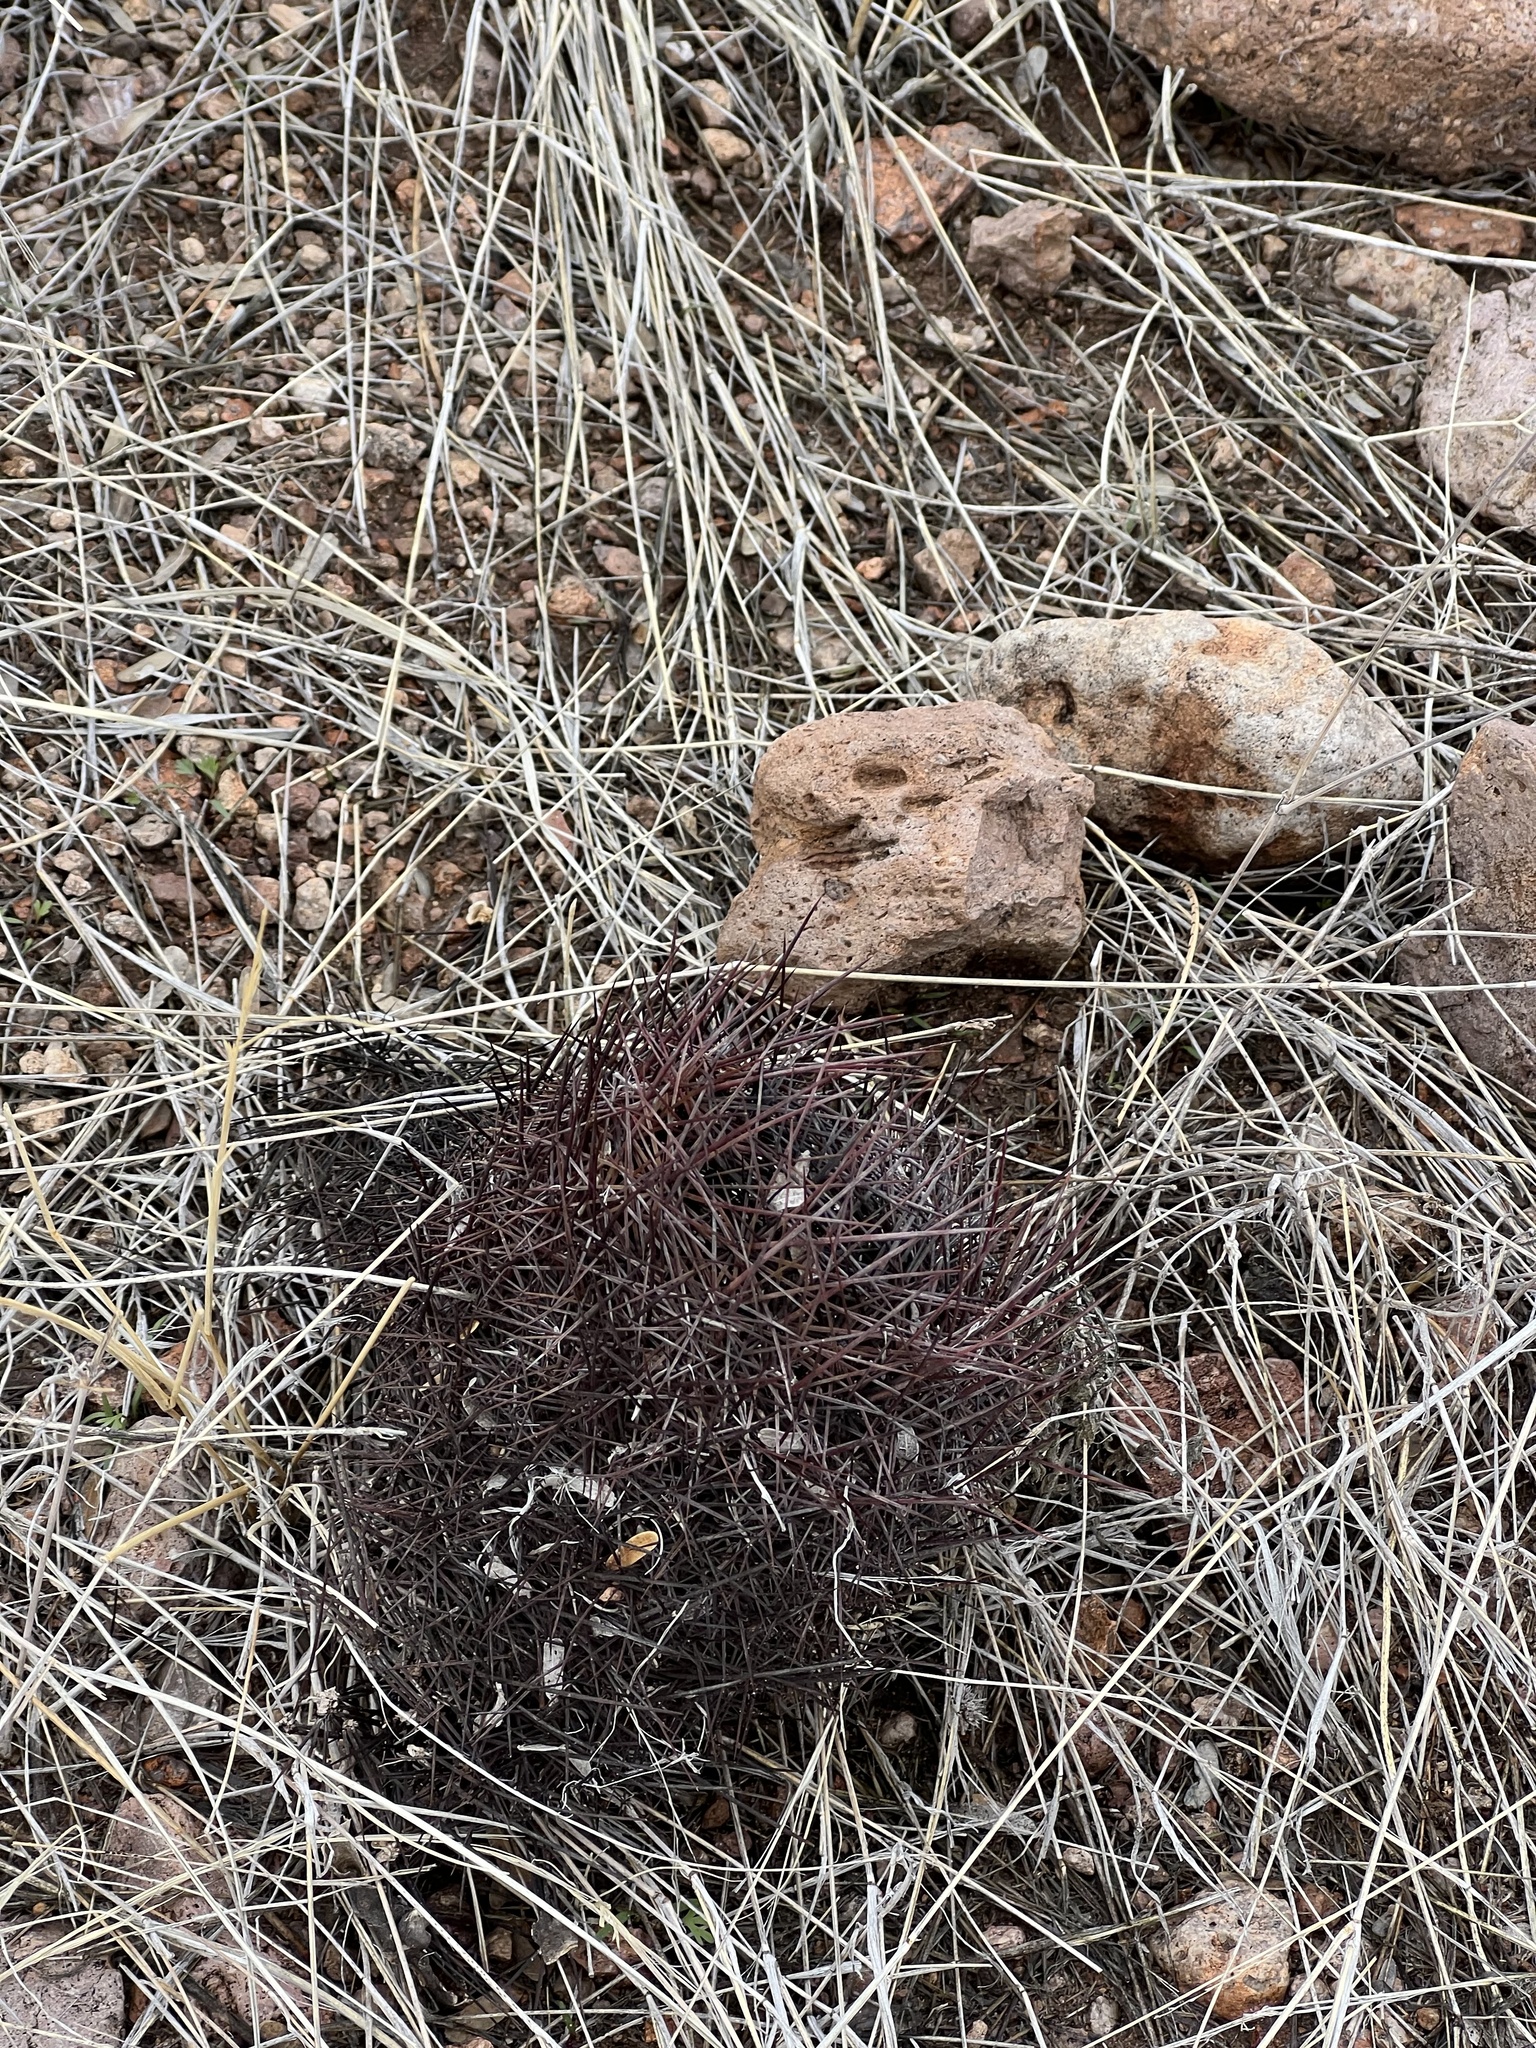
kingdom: Plantae
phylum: Tracheophyta
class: Magnoliopsida
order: Caryophyllales
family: Cactaceae
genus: Sclerocactus
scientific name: Sclerocactus johnsonii
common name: Eight-spine fishhook cactus
